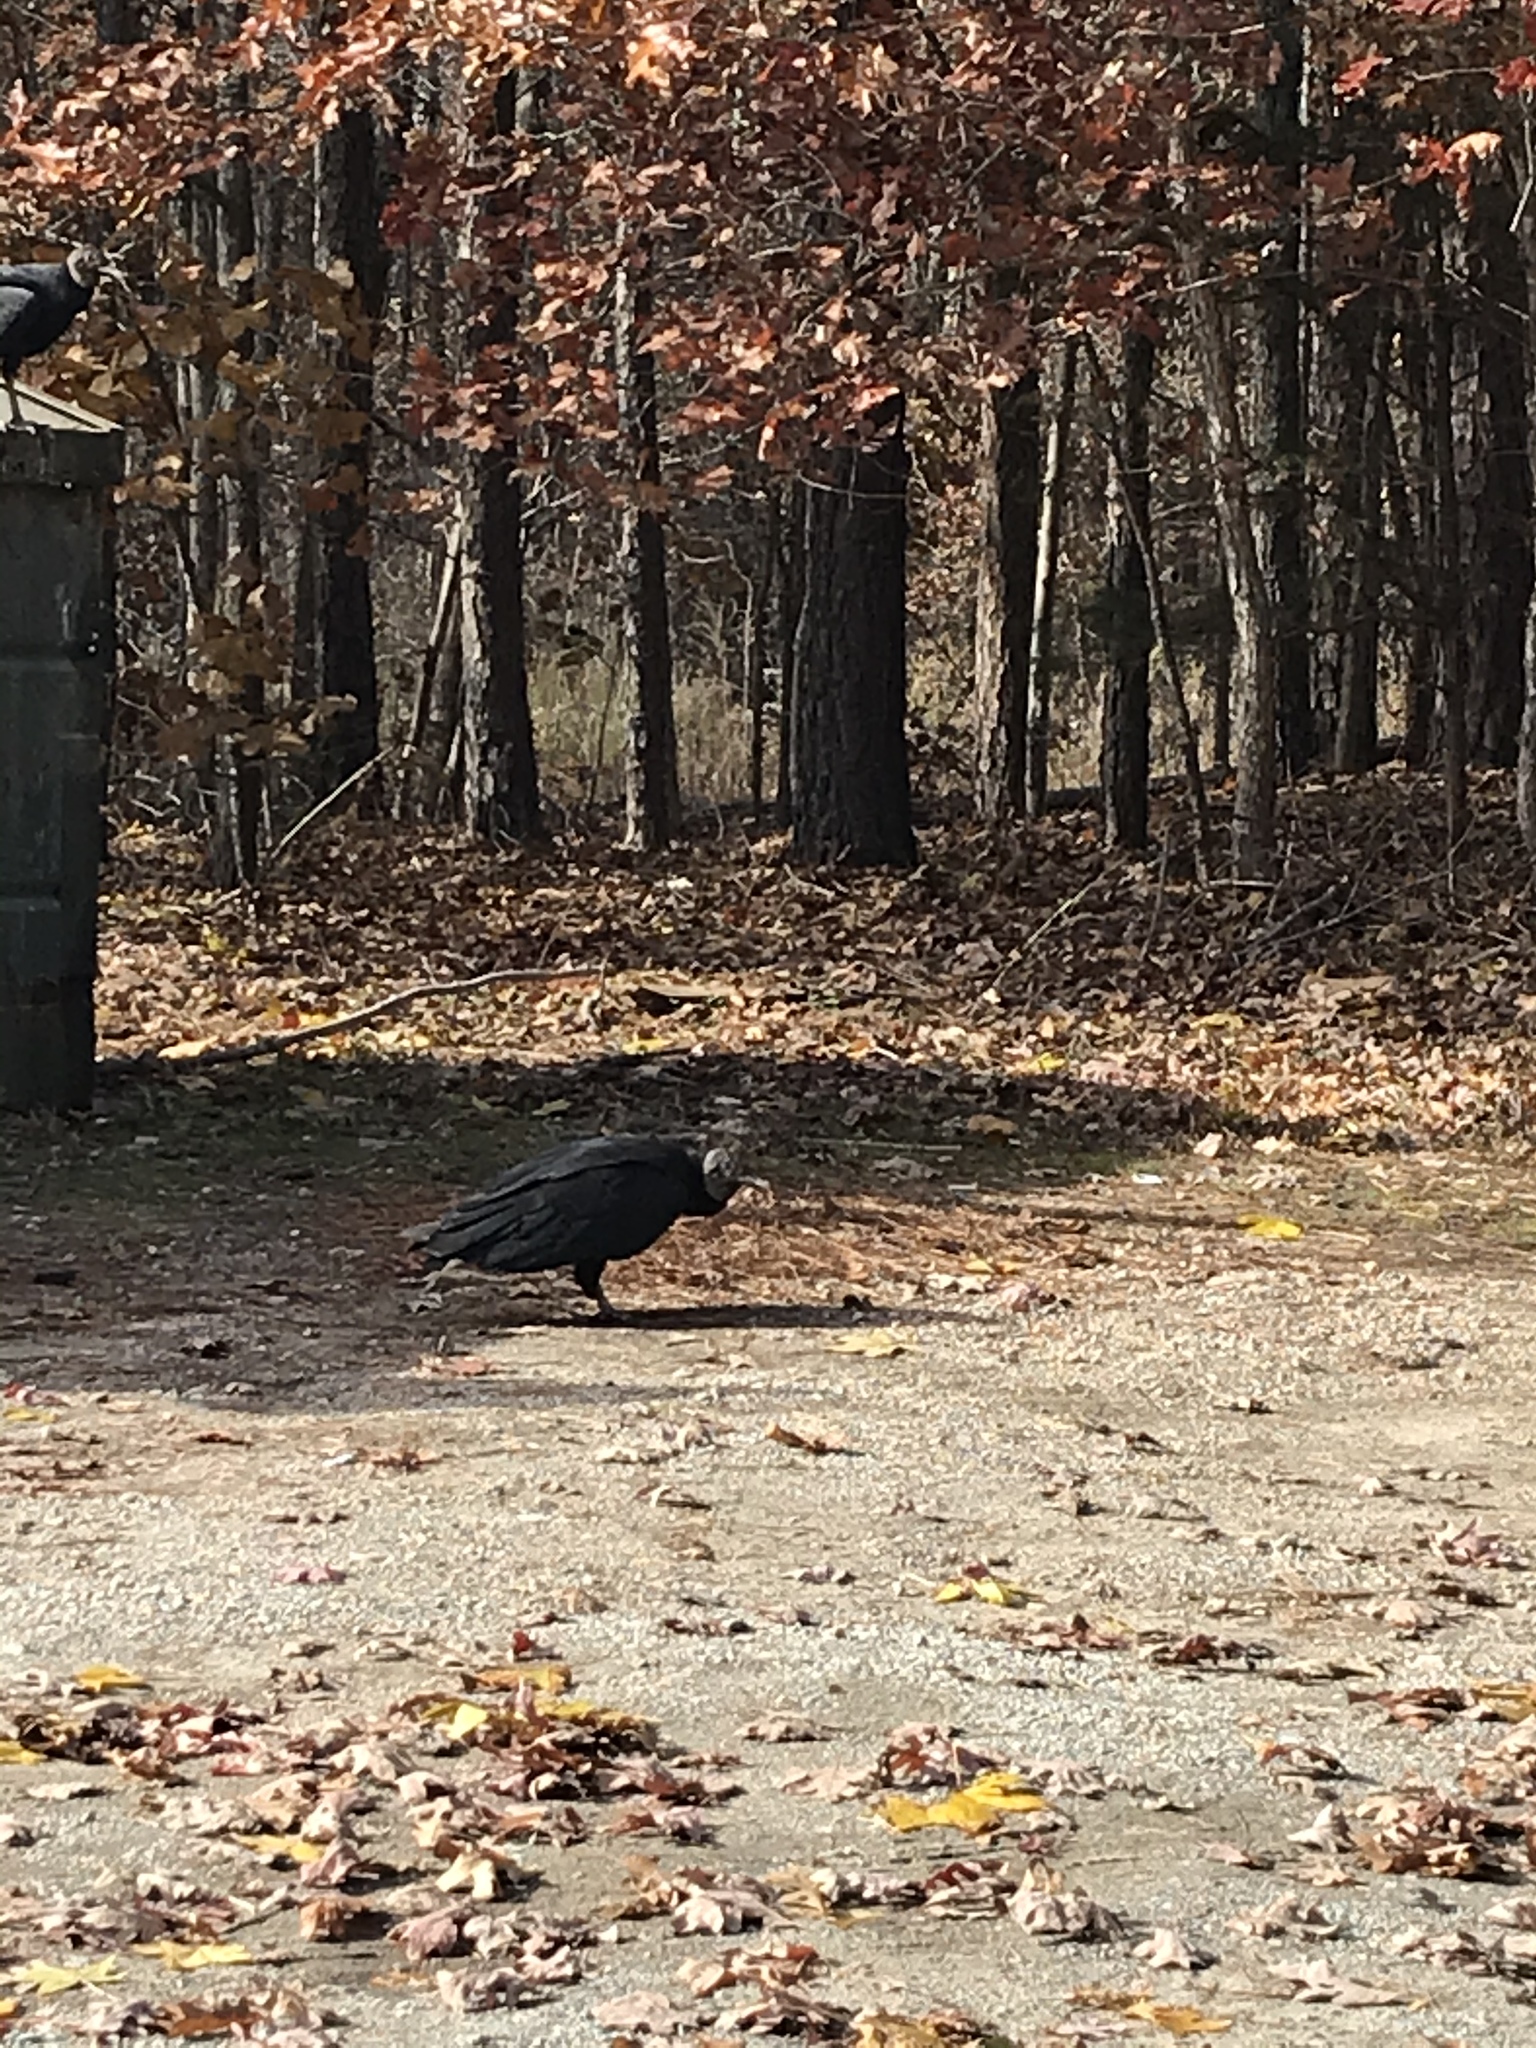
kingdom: Animalia
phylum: Chordata
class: Aves
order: Accipitriformes
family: Cathartidae
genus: Coragyps
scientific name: Coragyps atratus
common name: Black vulture
